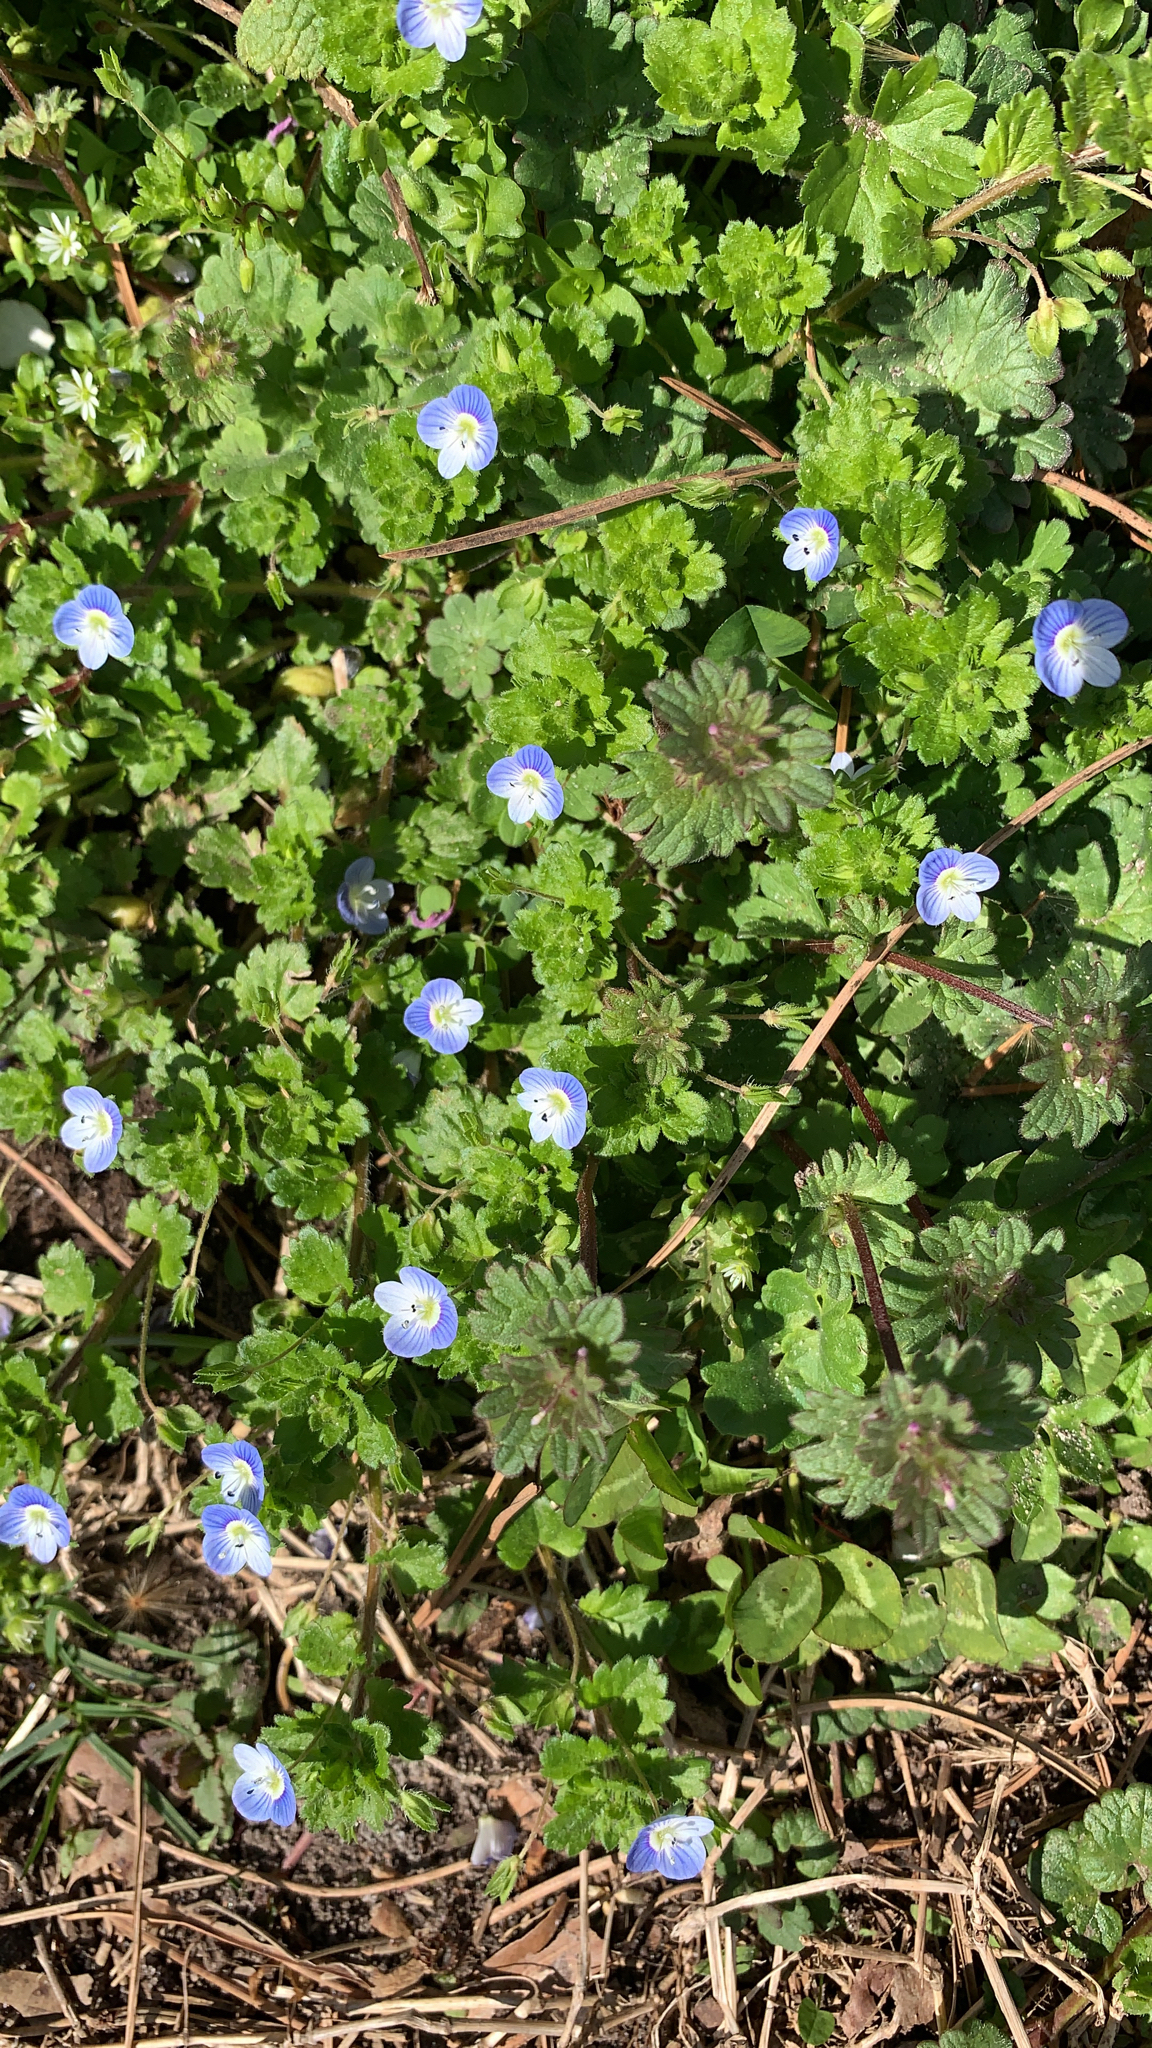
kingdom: Plantae
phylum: Tracheophyta
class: Magnoliopsida
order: Lamiales
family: Plantaginaceae
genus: Veronica
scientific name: Veronica persica
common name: Common field-speedwell
